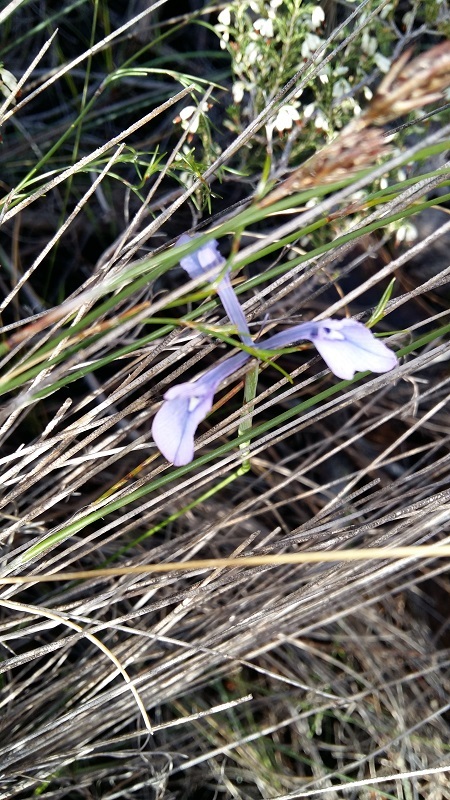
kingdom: Plantae
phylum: Tracheophyta
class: Liliopsida
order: Asparagales
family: Iridaceae
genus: Moraea
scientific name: Moraea tripetala
